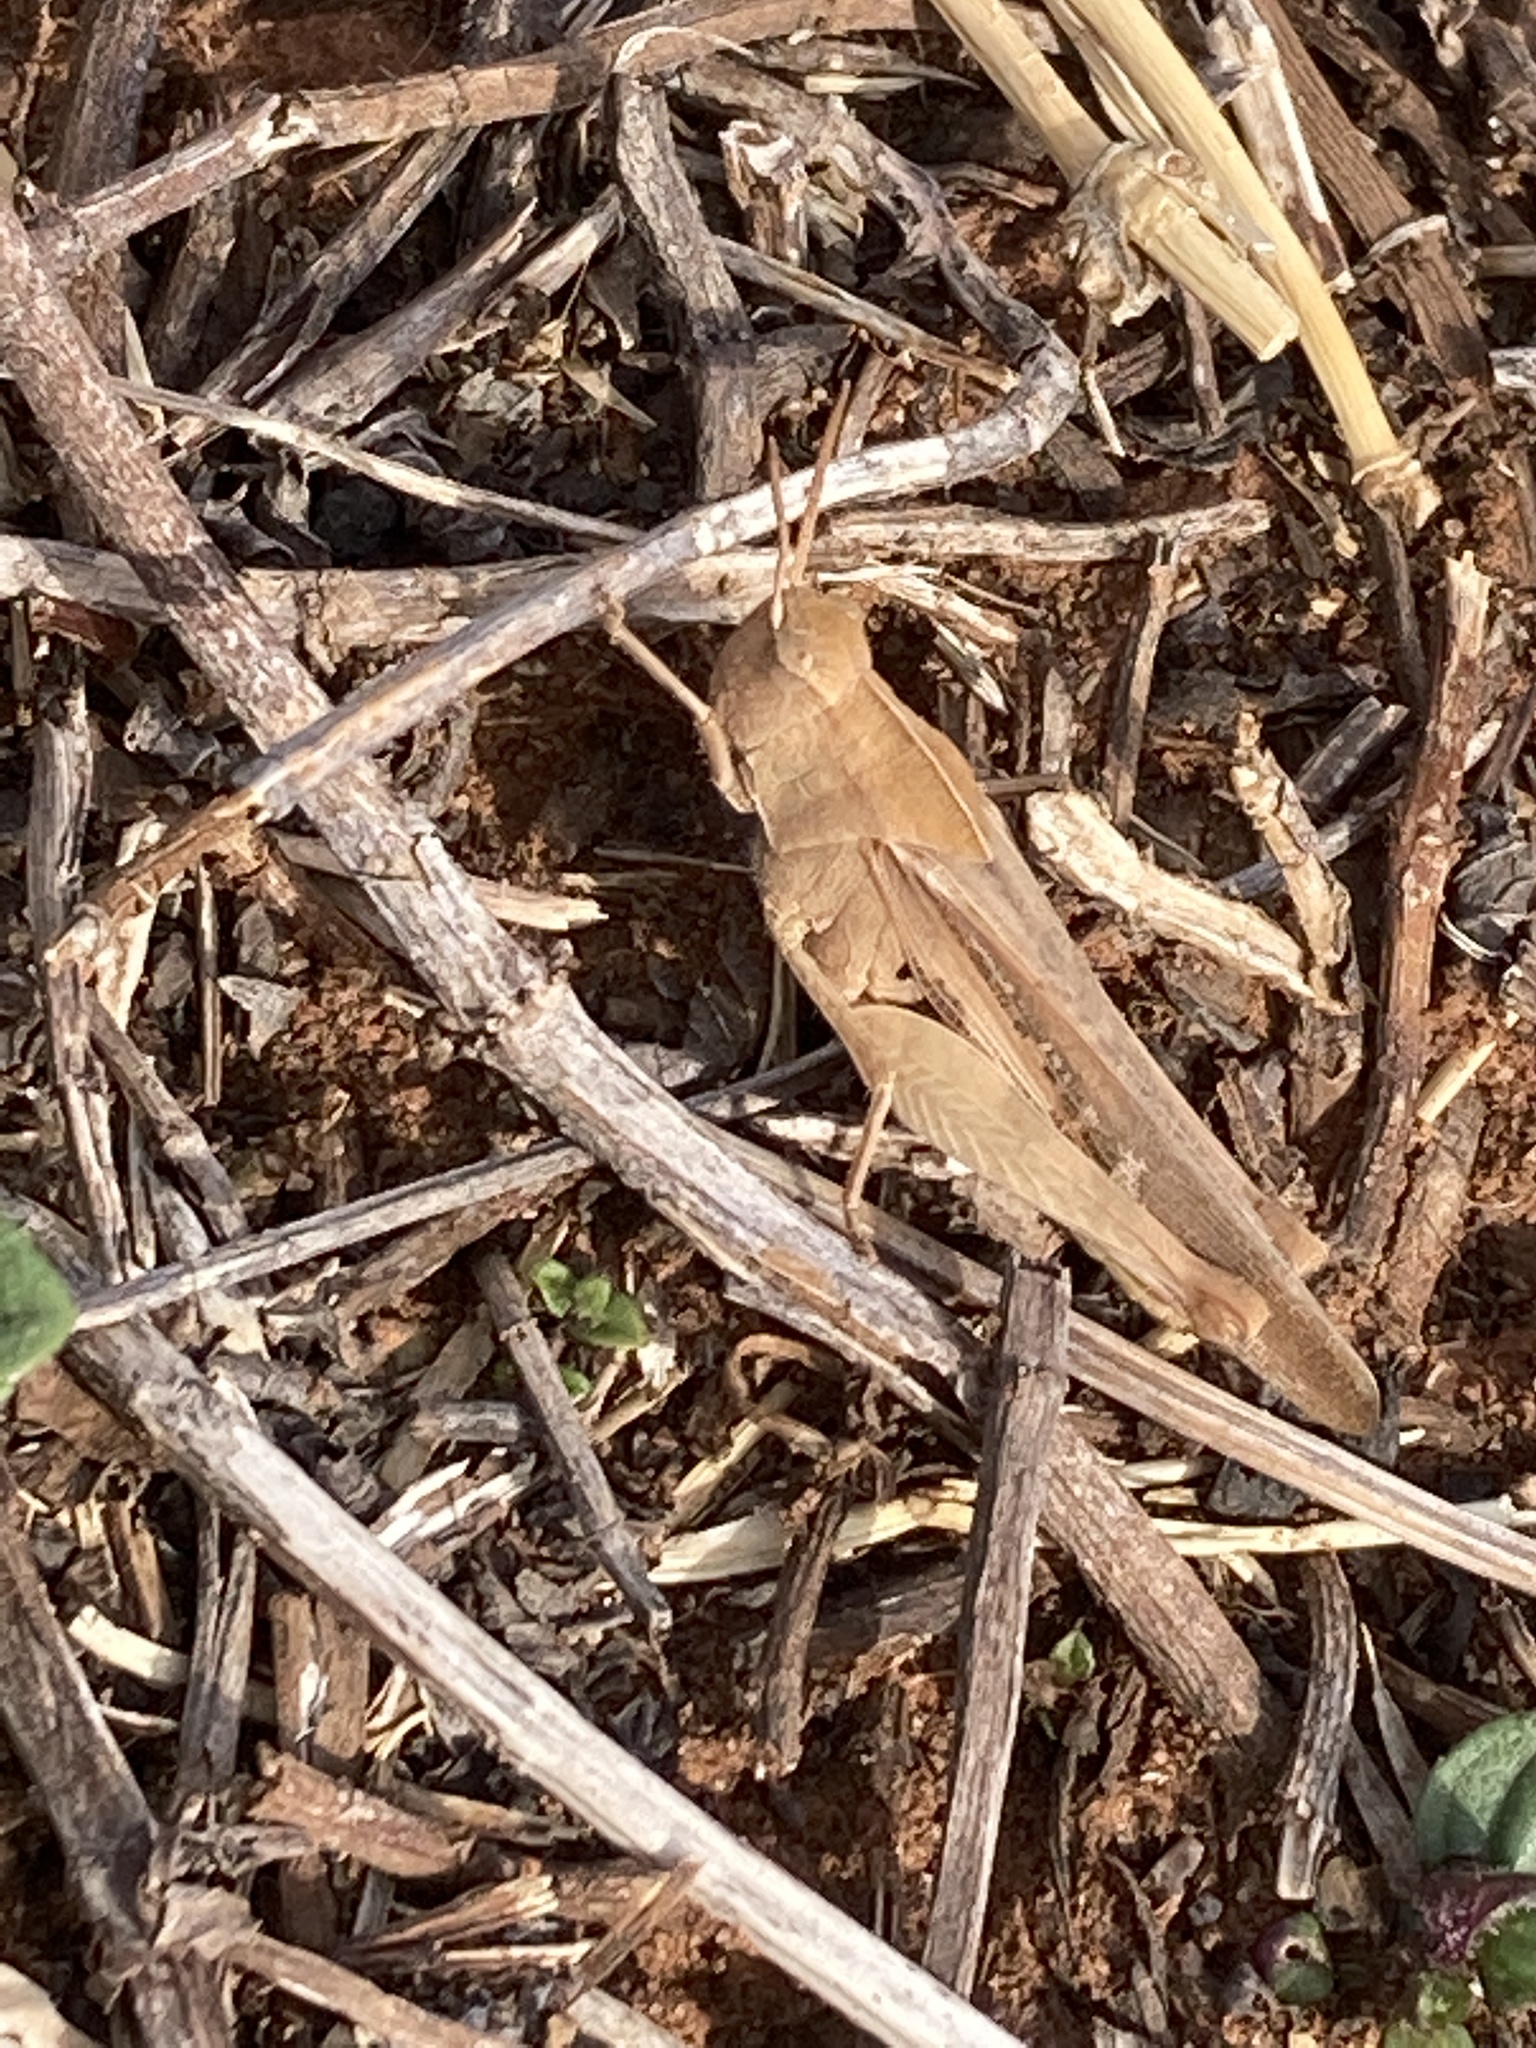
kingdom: Animalia
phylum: Arthropoda
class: Insecta
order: Orthoptera
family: Acrididae
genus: Chortophaga
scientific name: Chortophaga viridifasciata
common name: Green-striped grasshopper
